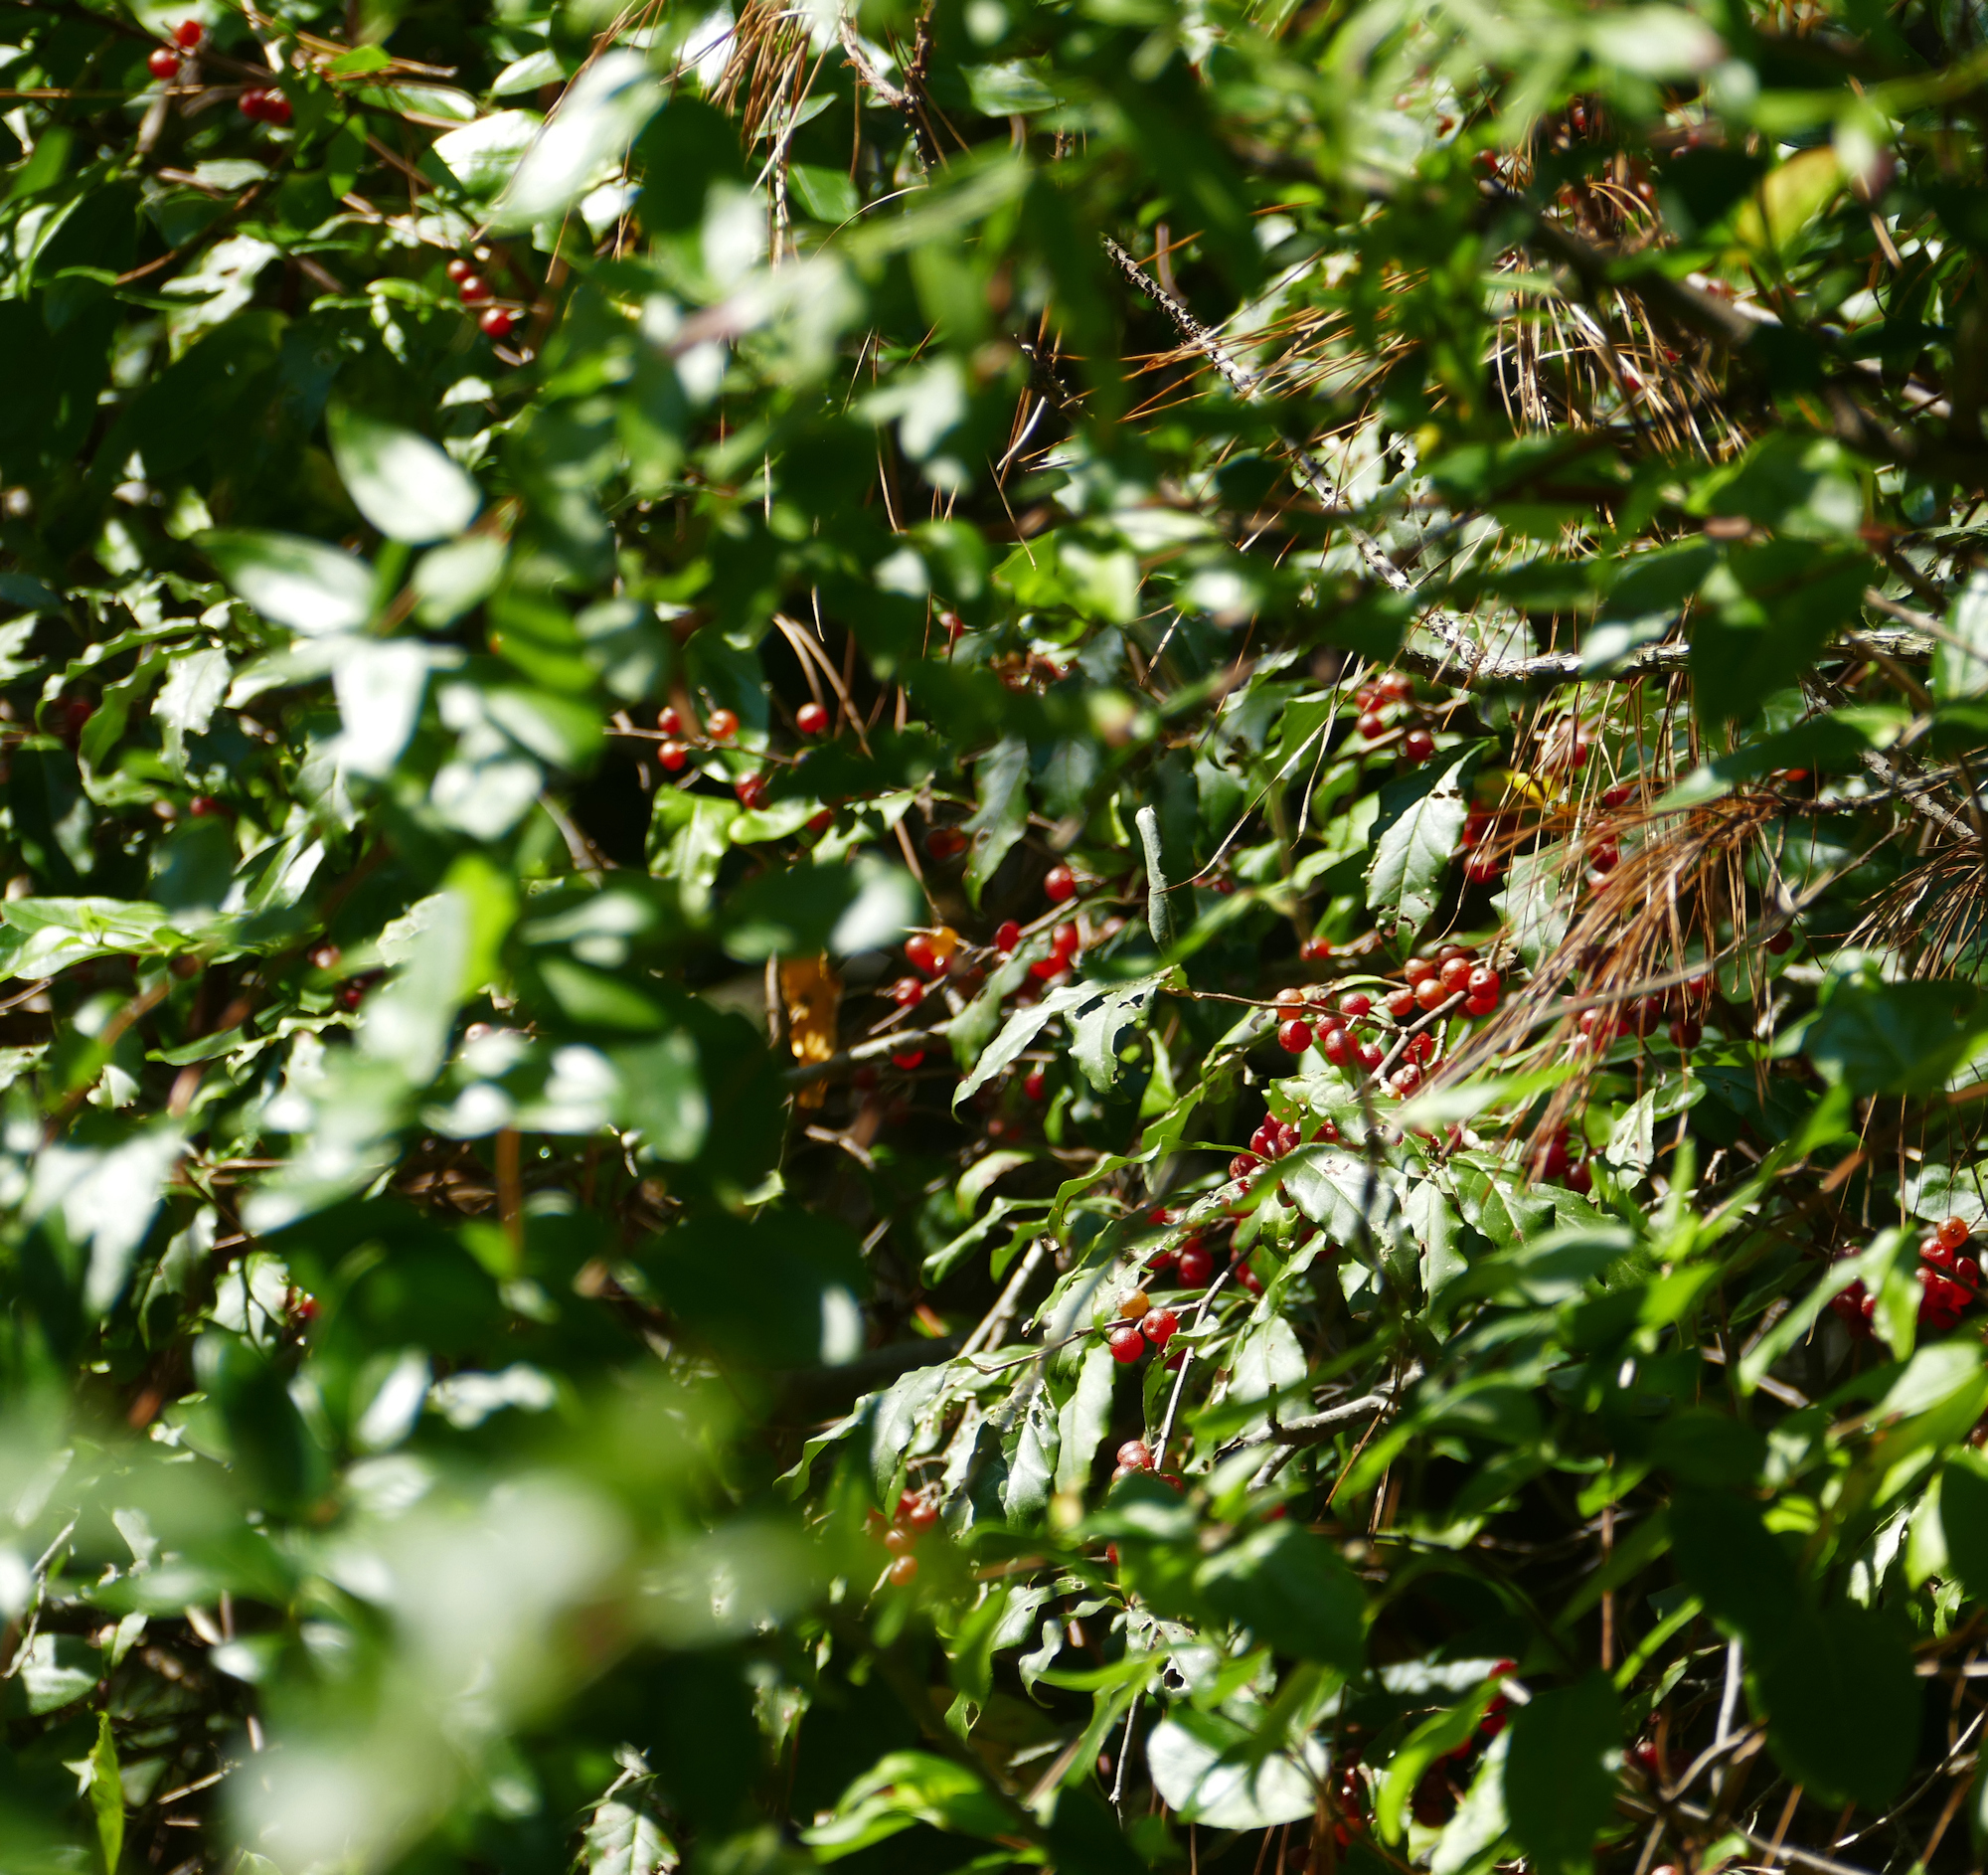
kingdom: Plantae
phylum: Tracheophyta
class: Magnoliopsida
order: Rosales
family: Elaeagnaceae
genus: Elaeagnus
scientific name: Elaeagnus umbellata
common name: Autumn olive
